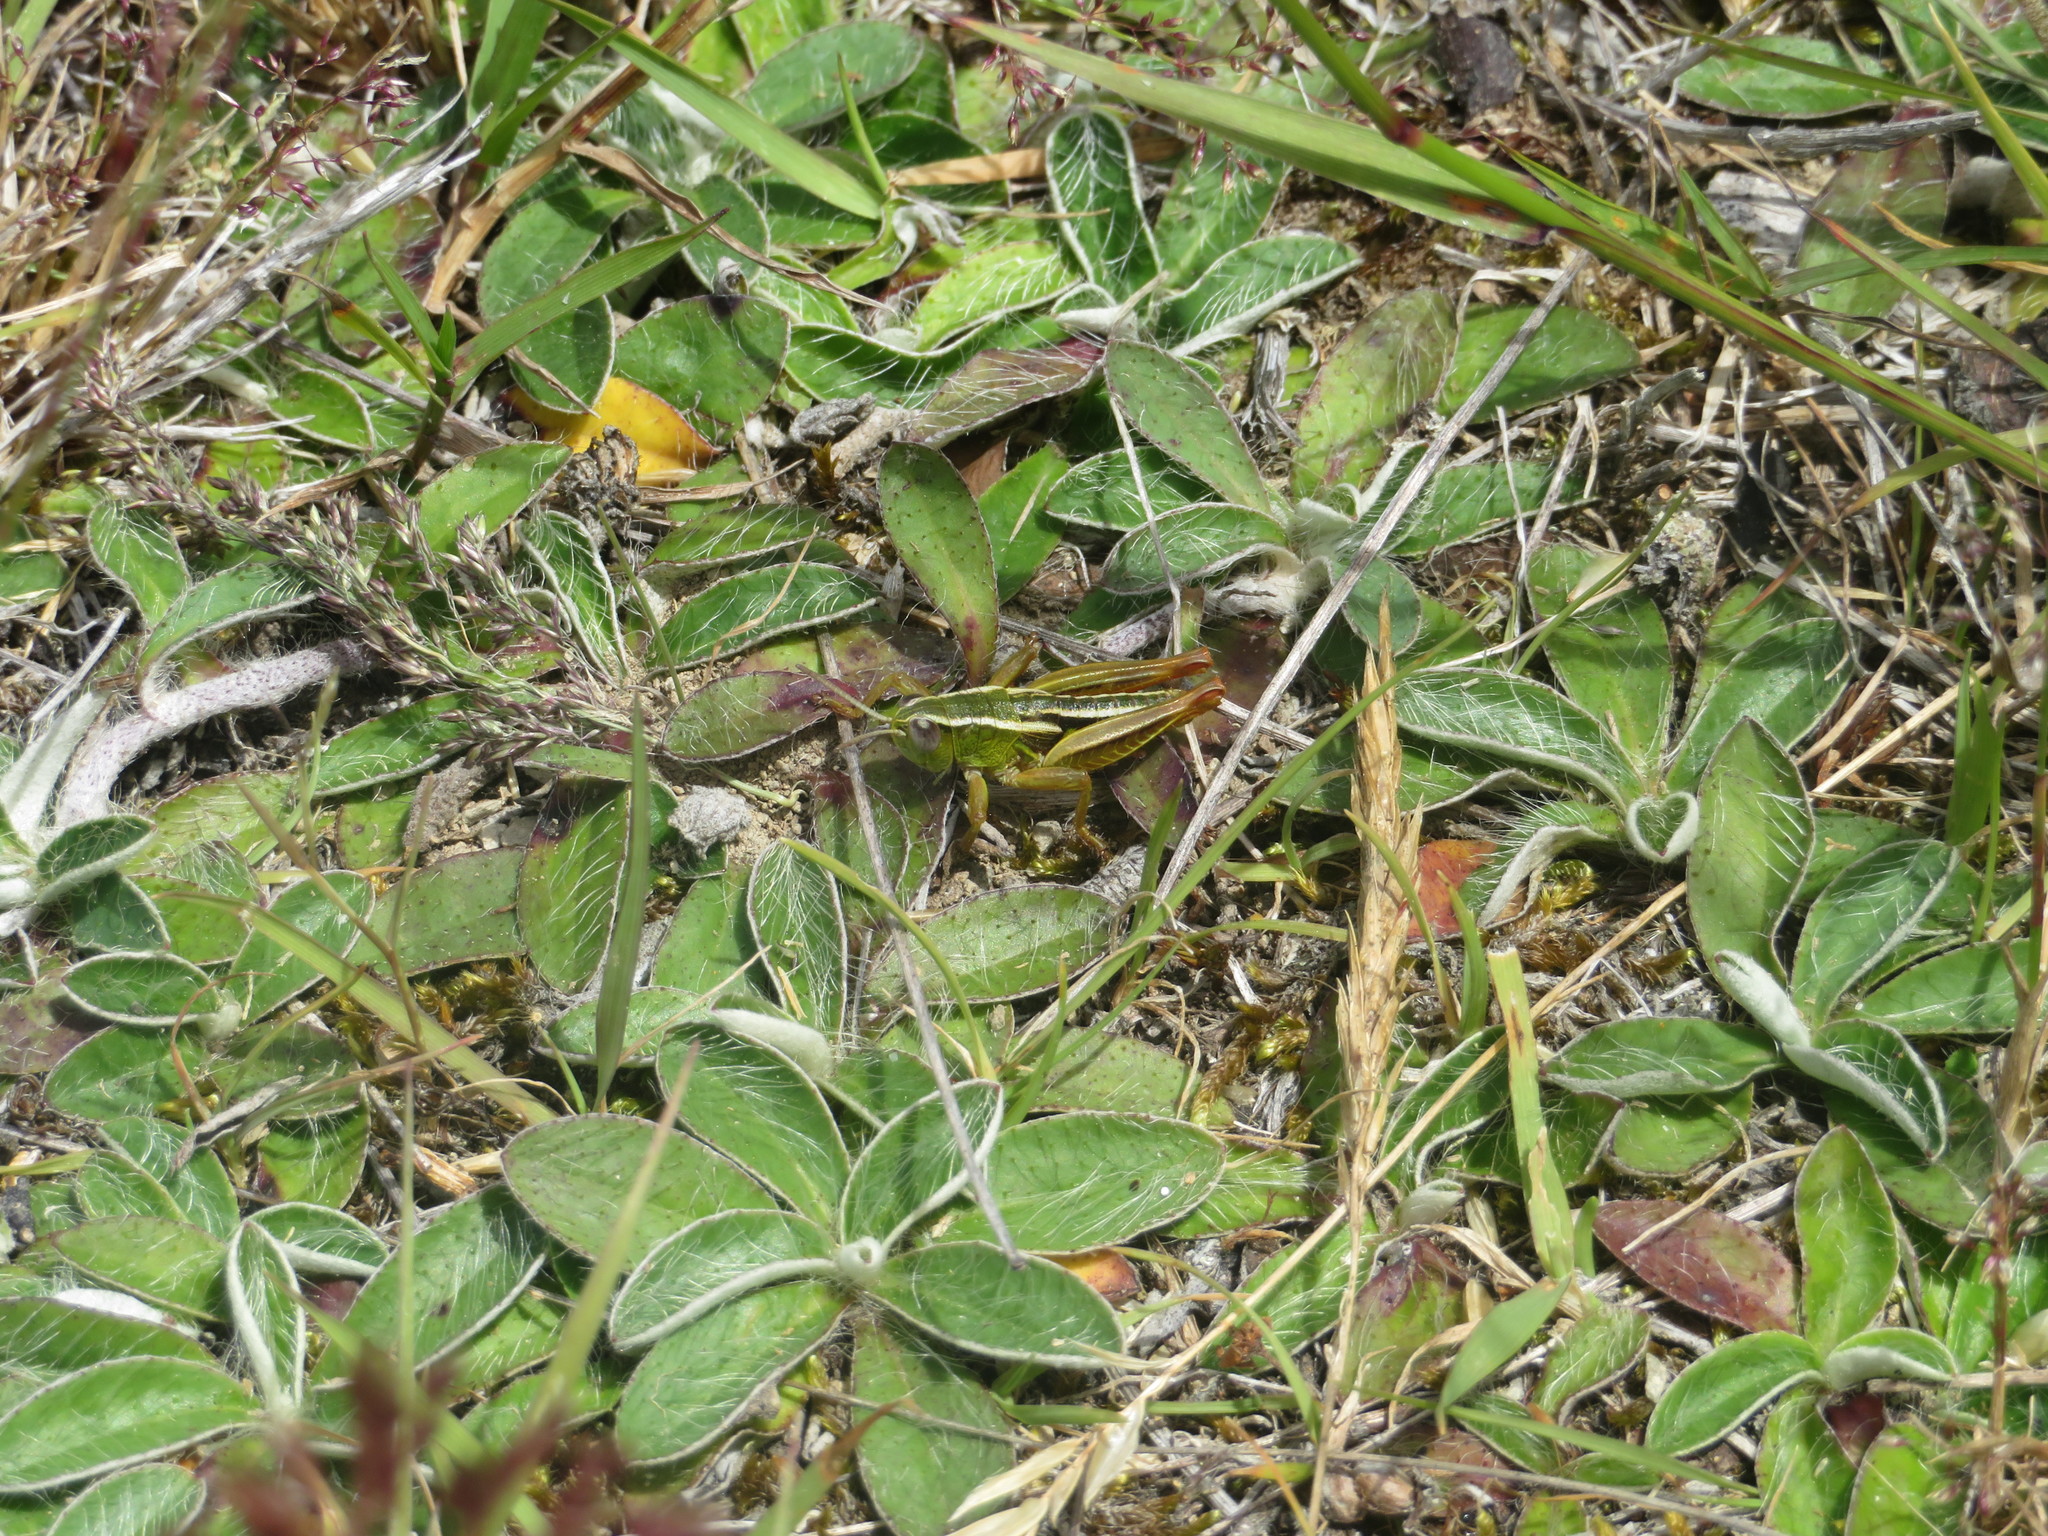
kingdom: Animalia
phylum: Arthropoda
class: Insecta
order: Orthoptera
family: Acrididae
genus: Sigaus
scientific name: Sigaus
